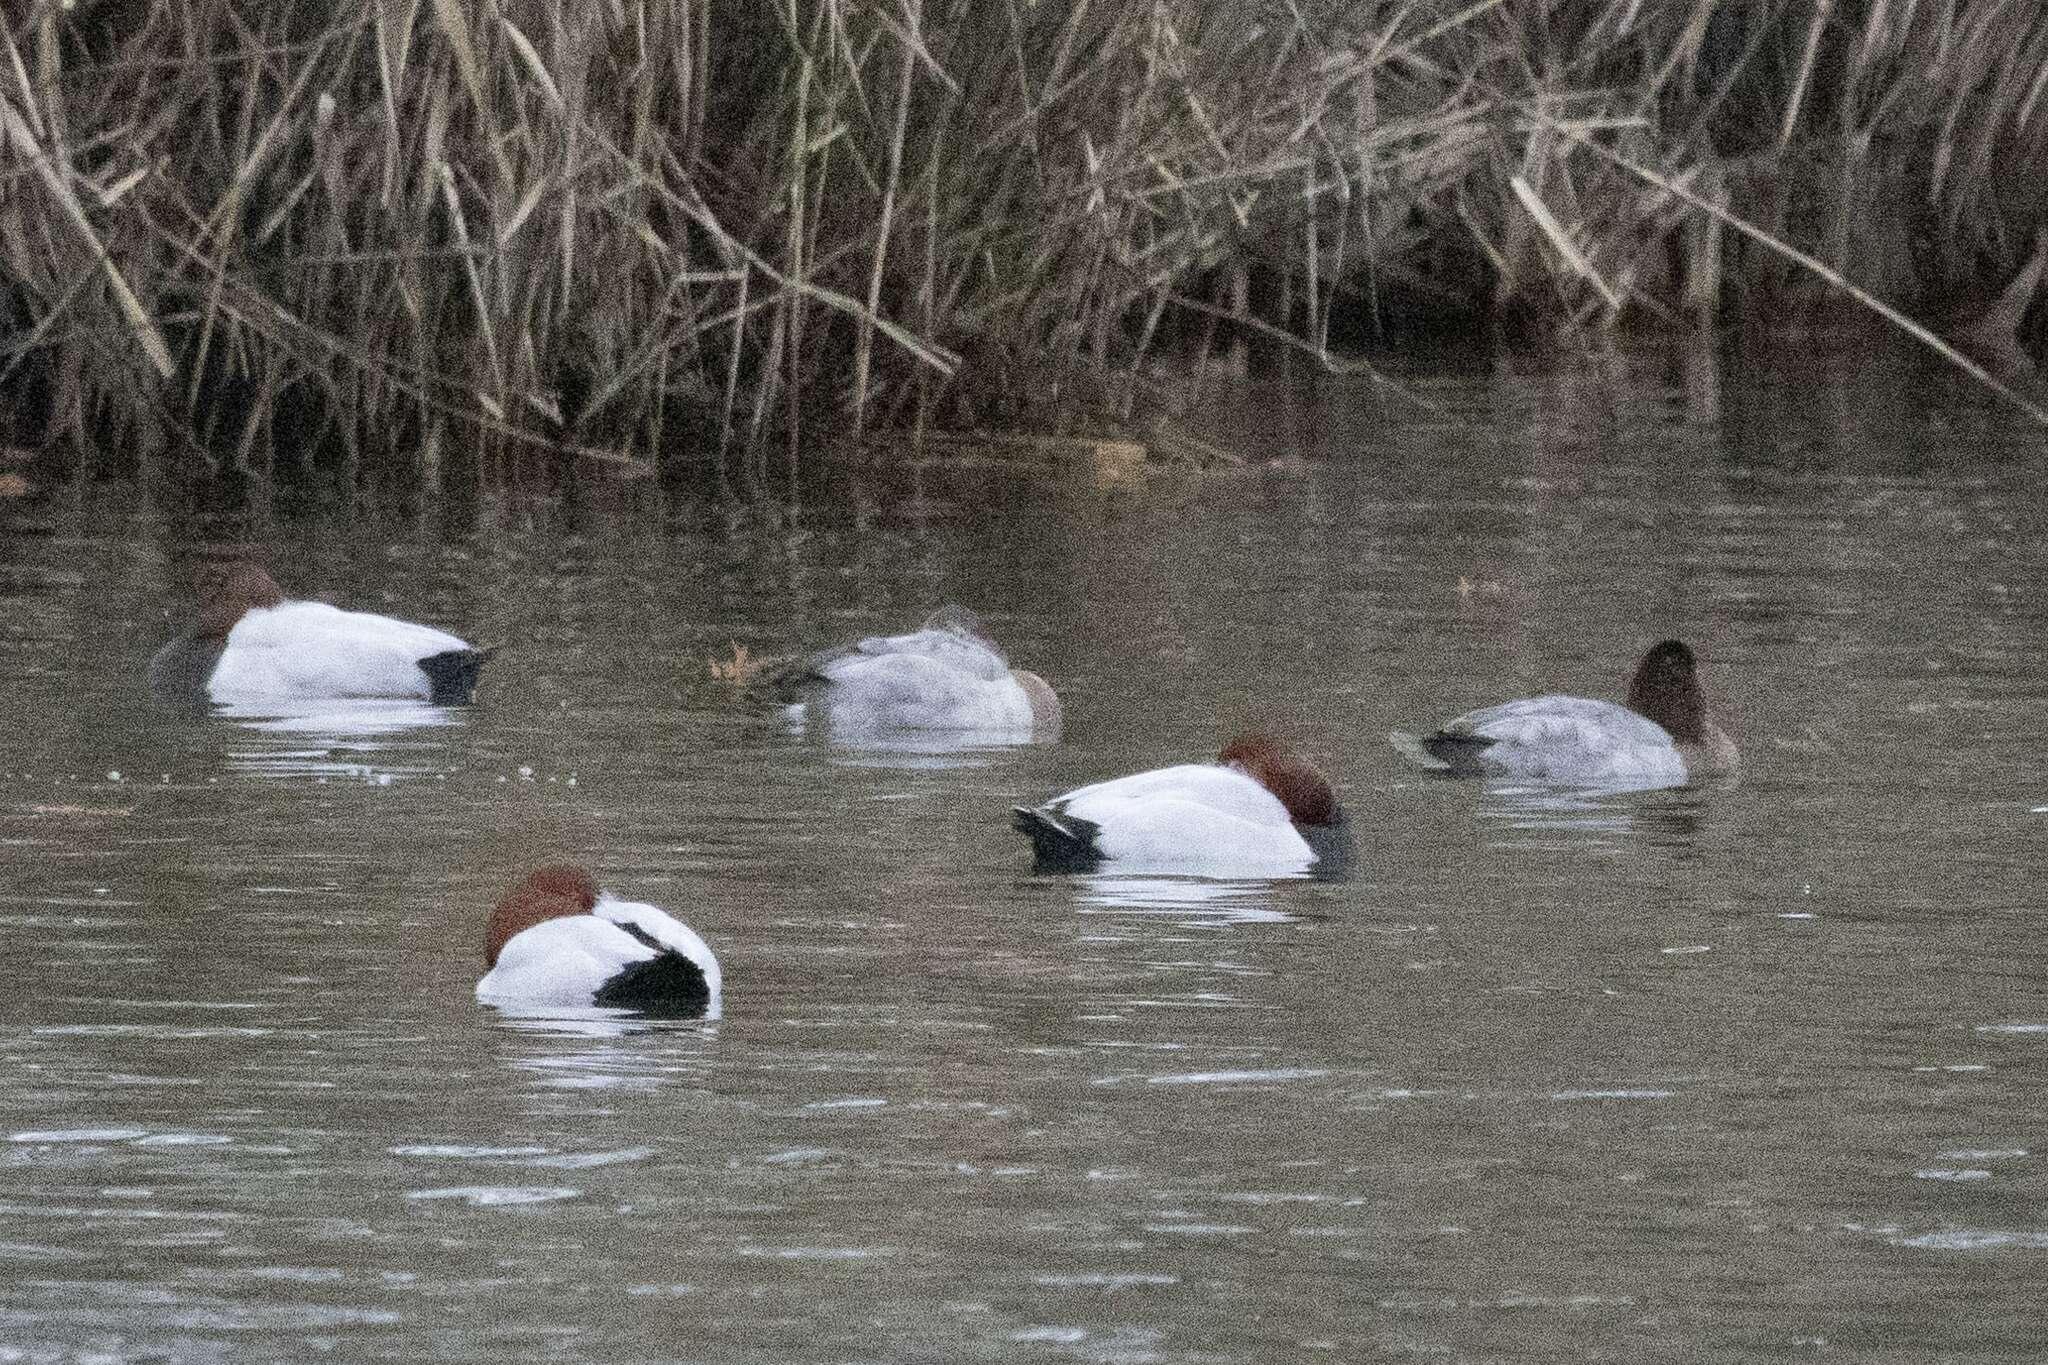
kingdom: Animalia
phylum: Chordata
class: Aves
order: Anseriformes
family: Anatidae
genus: Aythya
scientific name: Aythya ferina
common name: Common pochard
